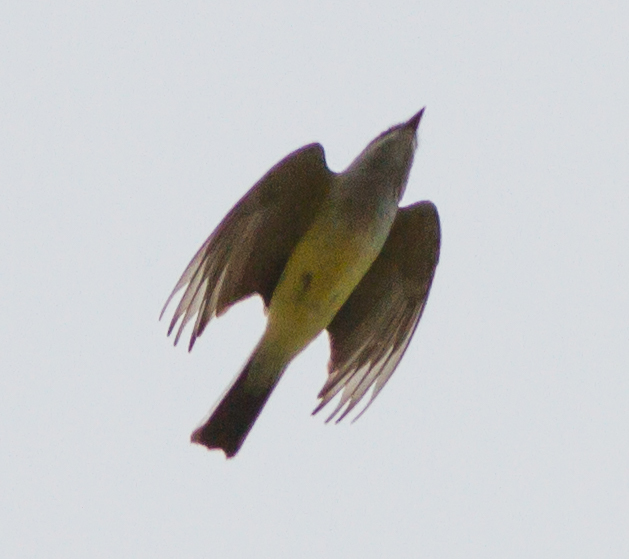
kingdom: Animalia
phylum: Chordata
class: Aves
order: Passeriformes
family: Tyrannidae
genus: Tyrannus
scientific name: Tyrannus verticalis
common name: Western kingbird
